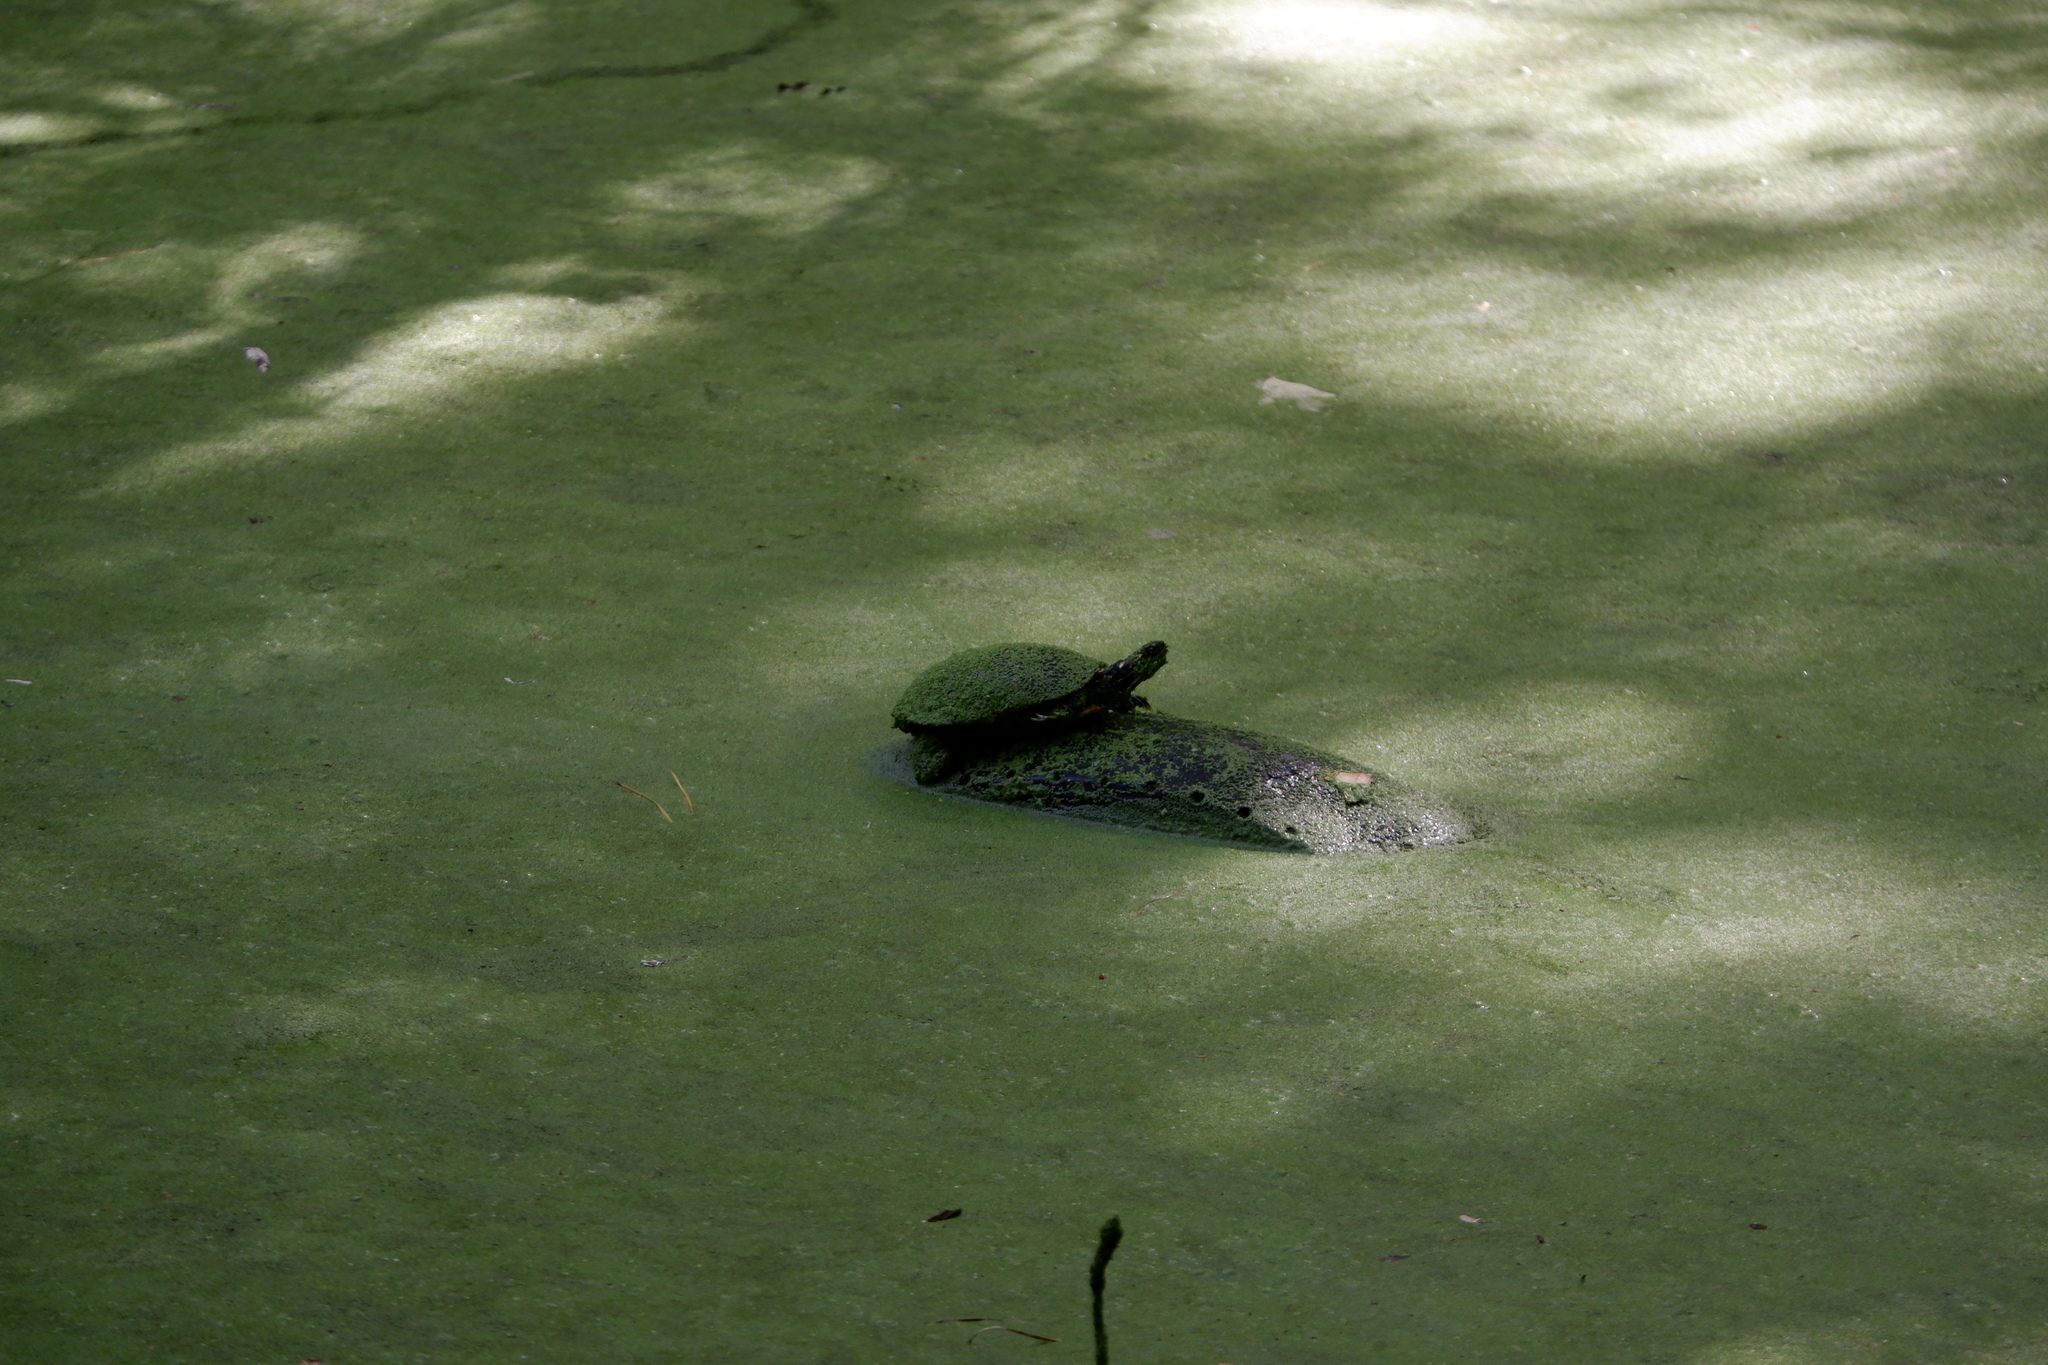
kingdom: Animalia
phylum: Chordata
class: Testudines
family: Emydidae
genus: Chrysemys
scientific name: Chrysemys picta
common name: Painted turtle
